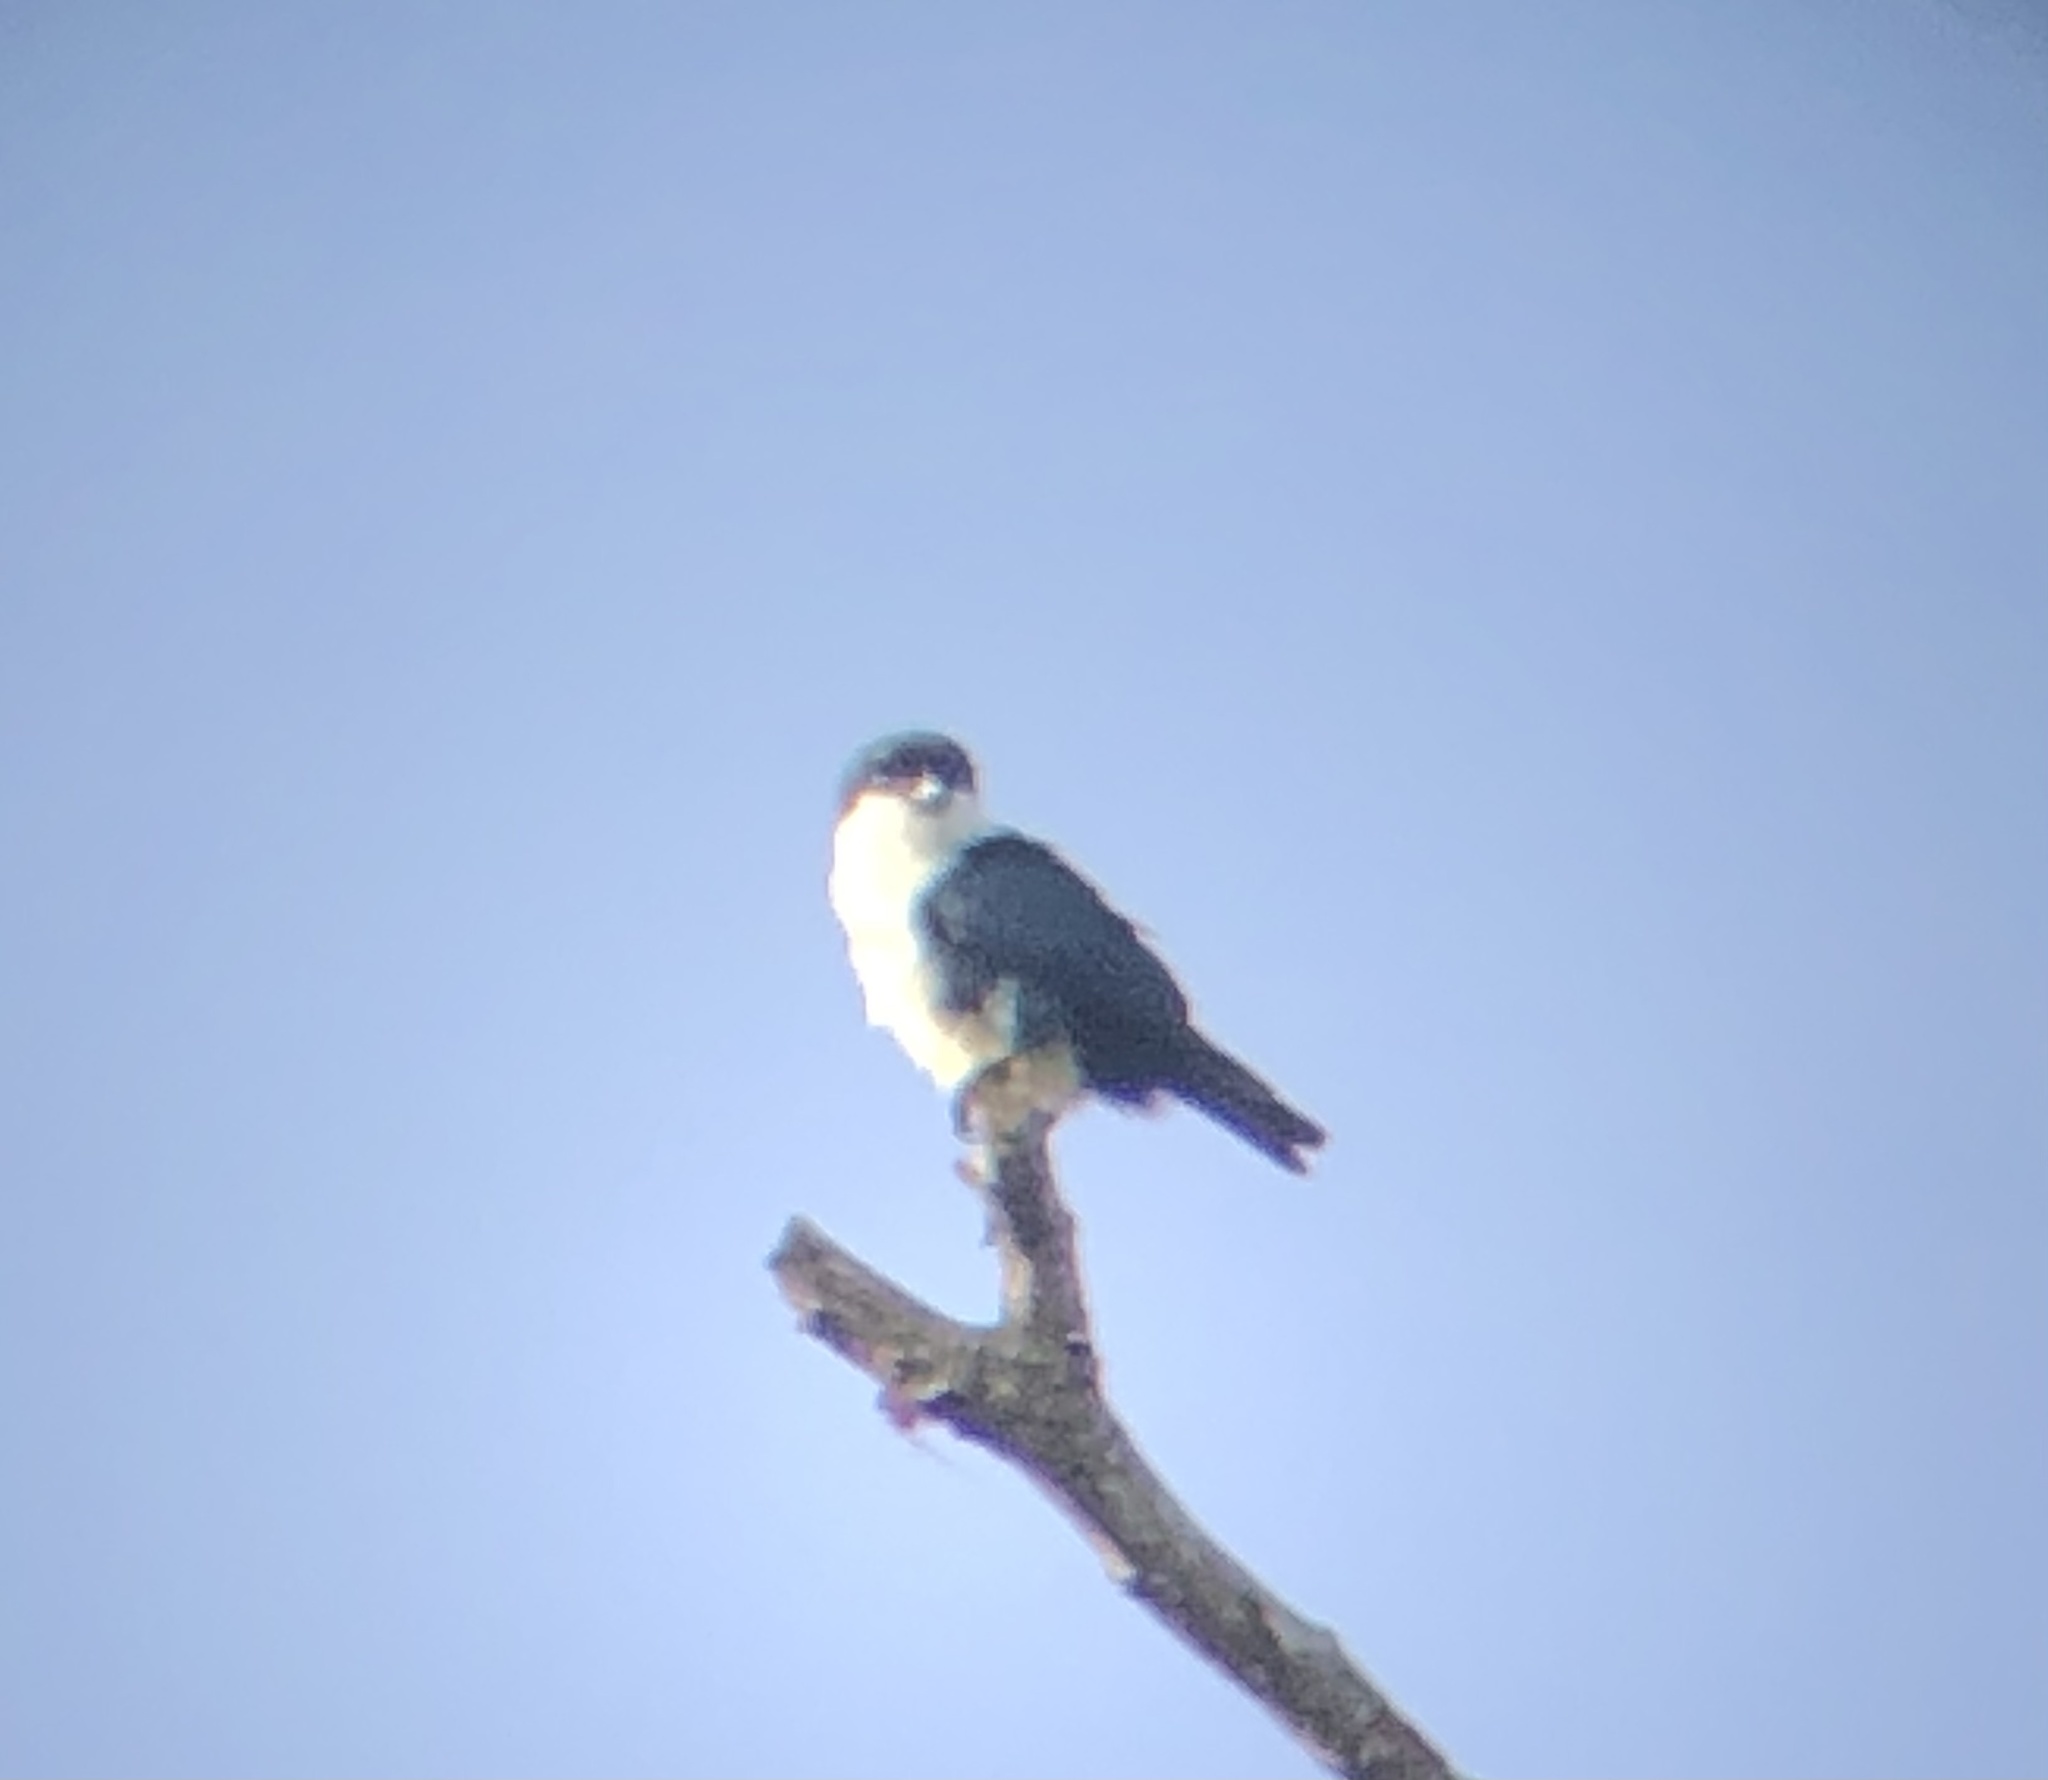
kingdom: Animalia
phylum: Chordata
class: Aves
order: Falconiformes
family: Falconidae
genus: Microhierax
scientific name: Microhierax erythrogenys
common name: Philippine falconet
